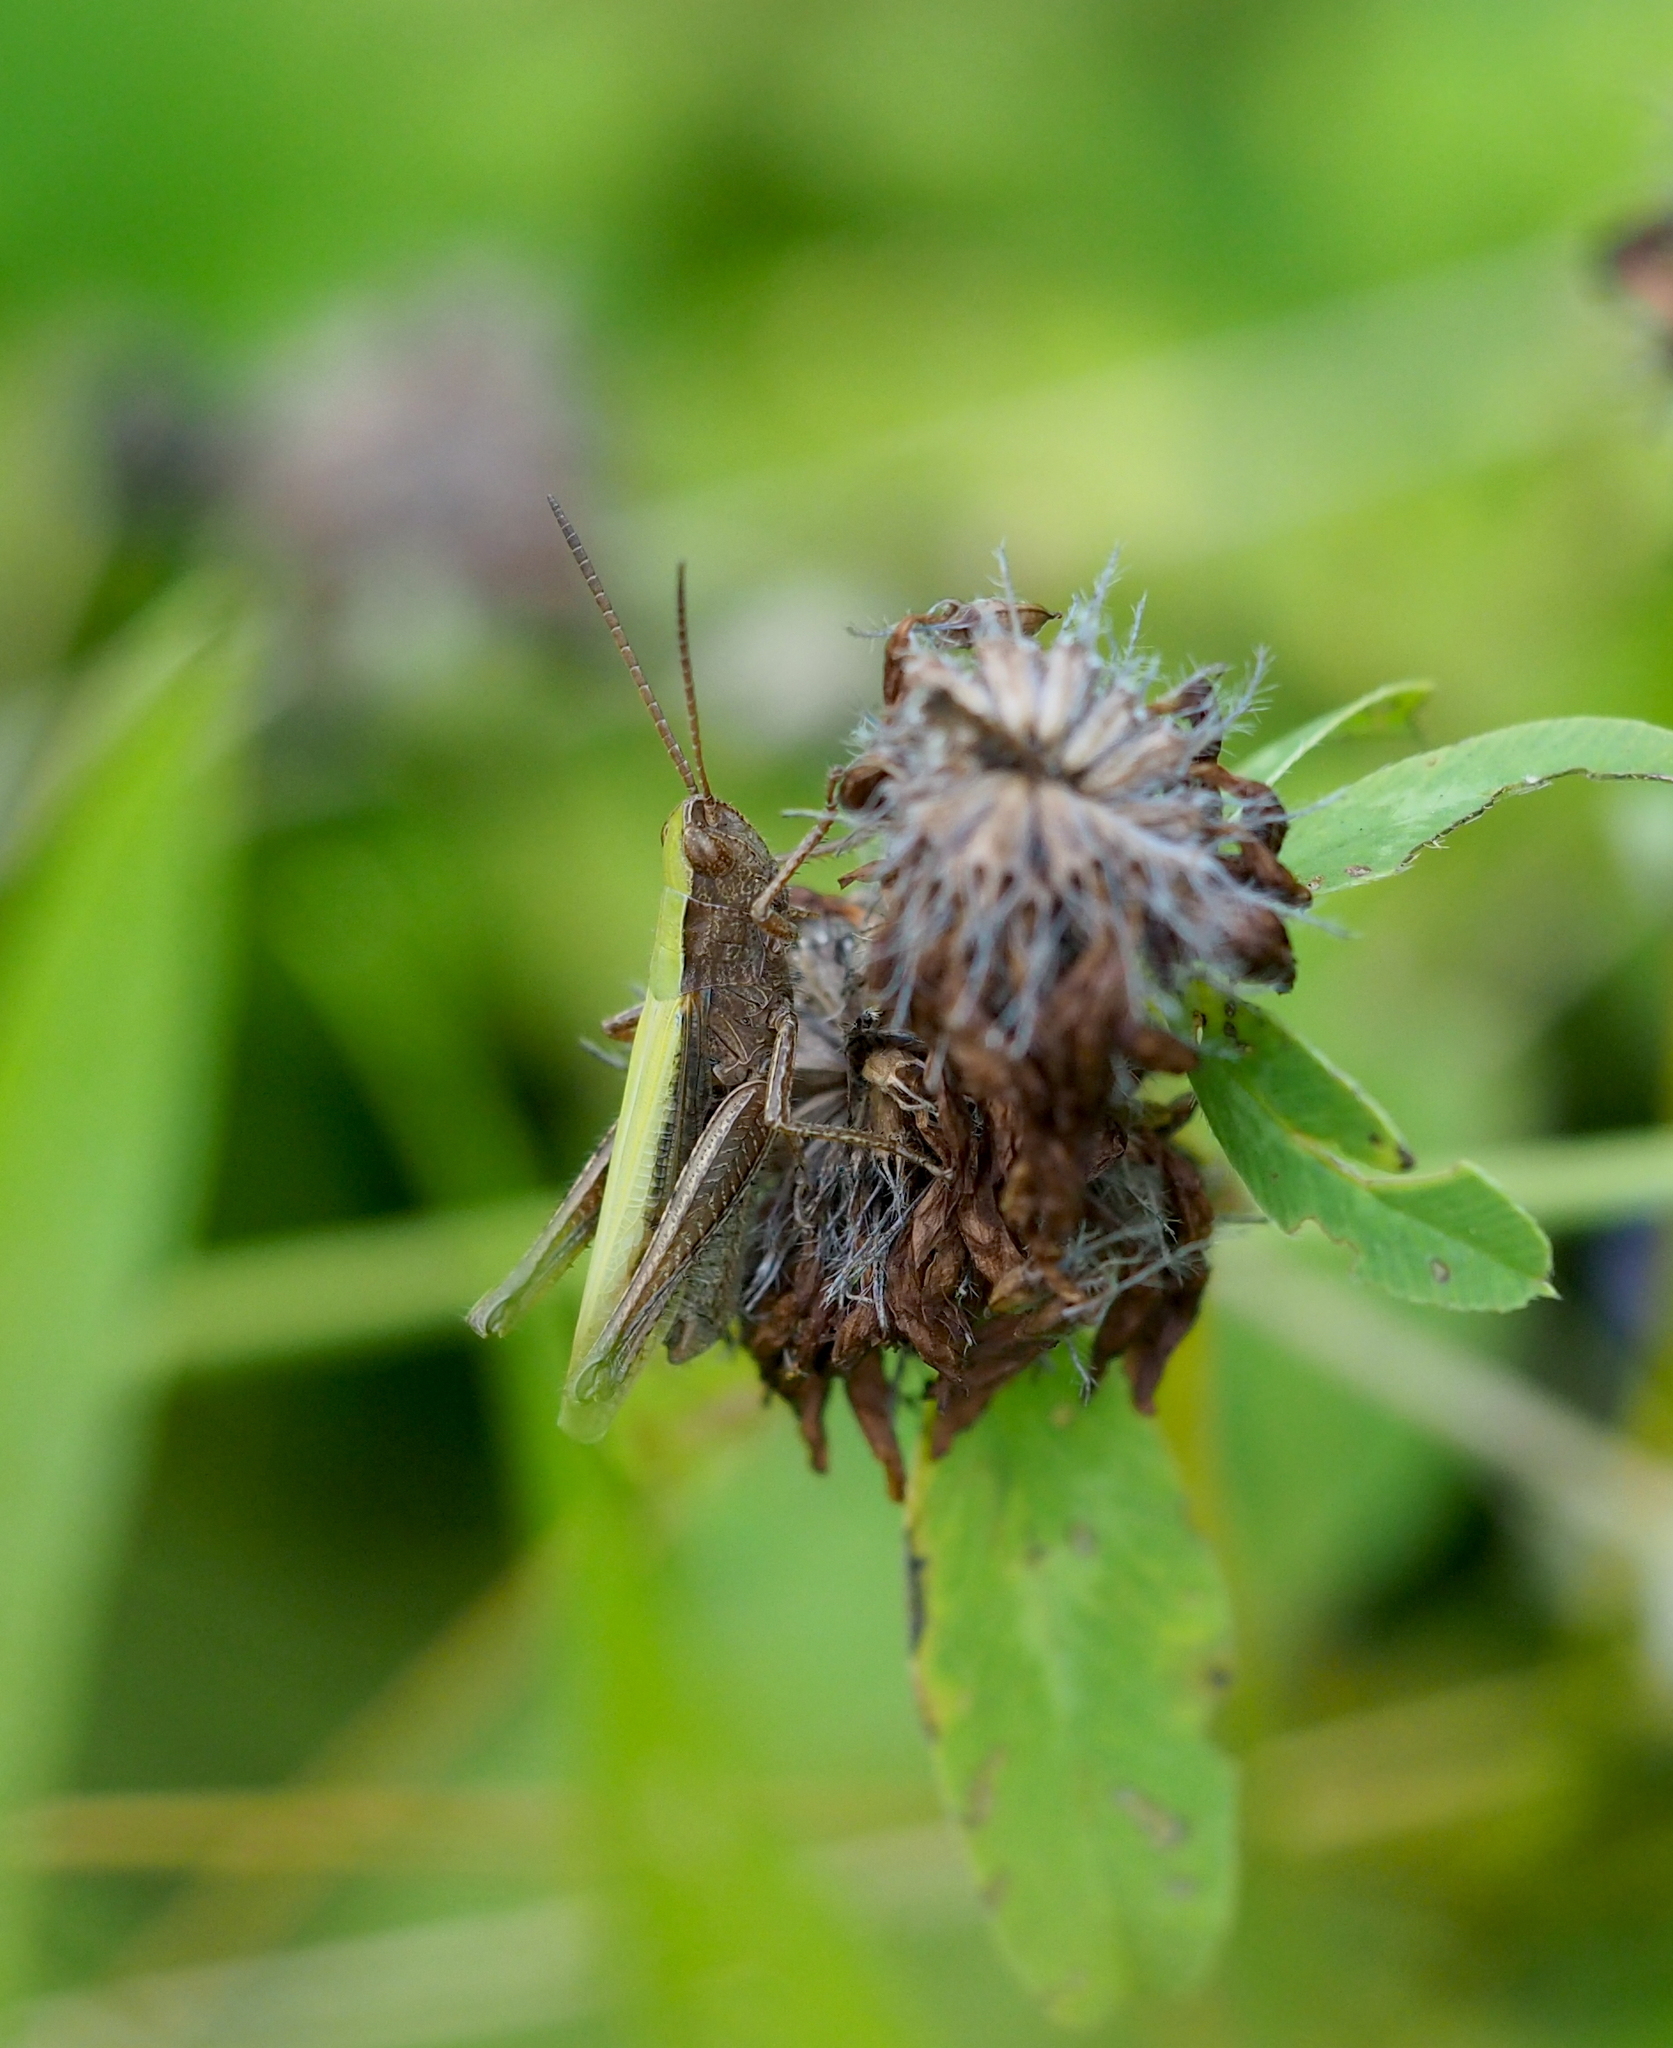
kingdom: Animalia
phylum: Arthropoda
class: Insecta
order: Orthoptera
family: Acrididae
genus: Chorthippus
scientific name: Chorthippus dorsatus
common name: Steppe grasshopper
